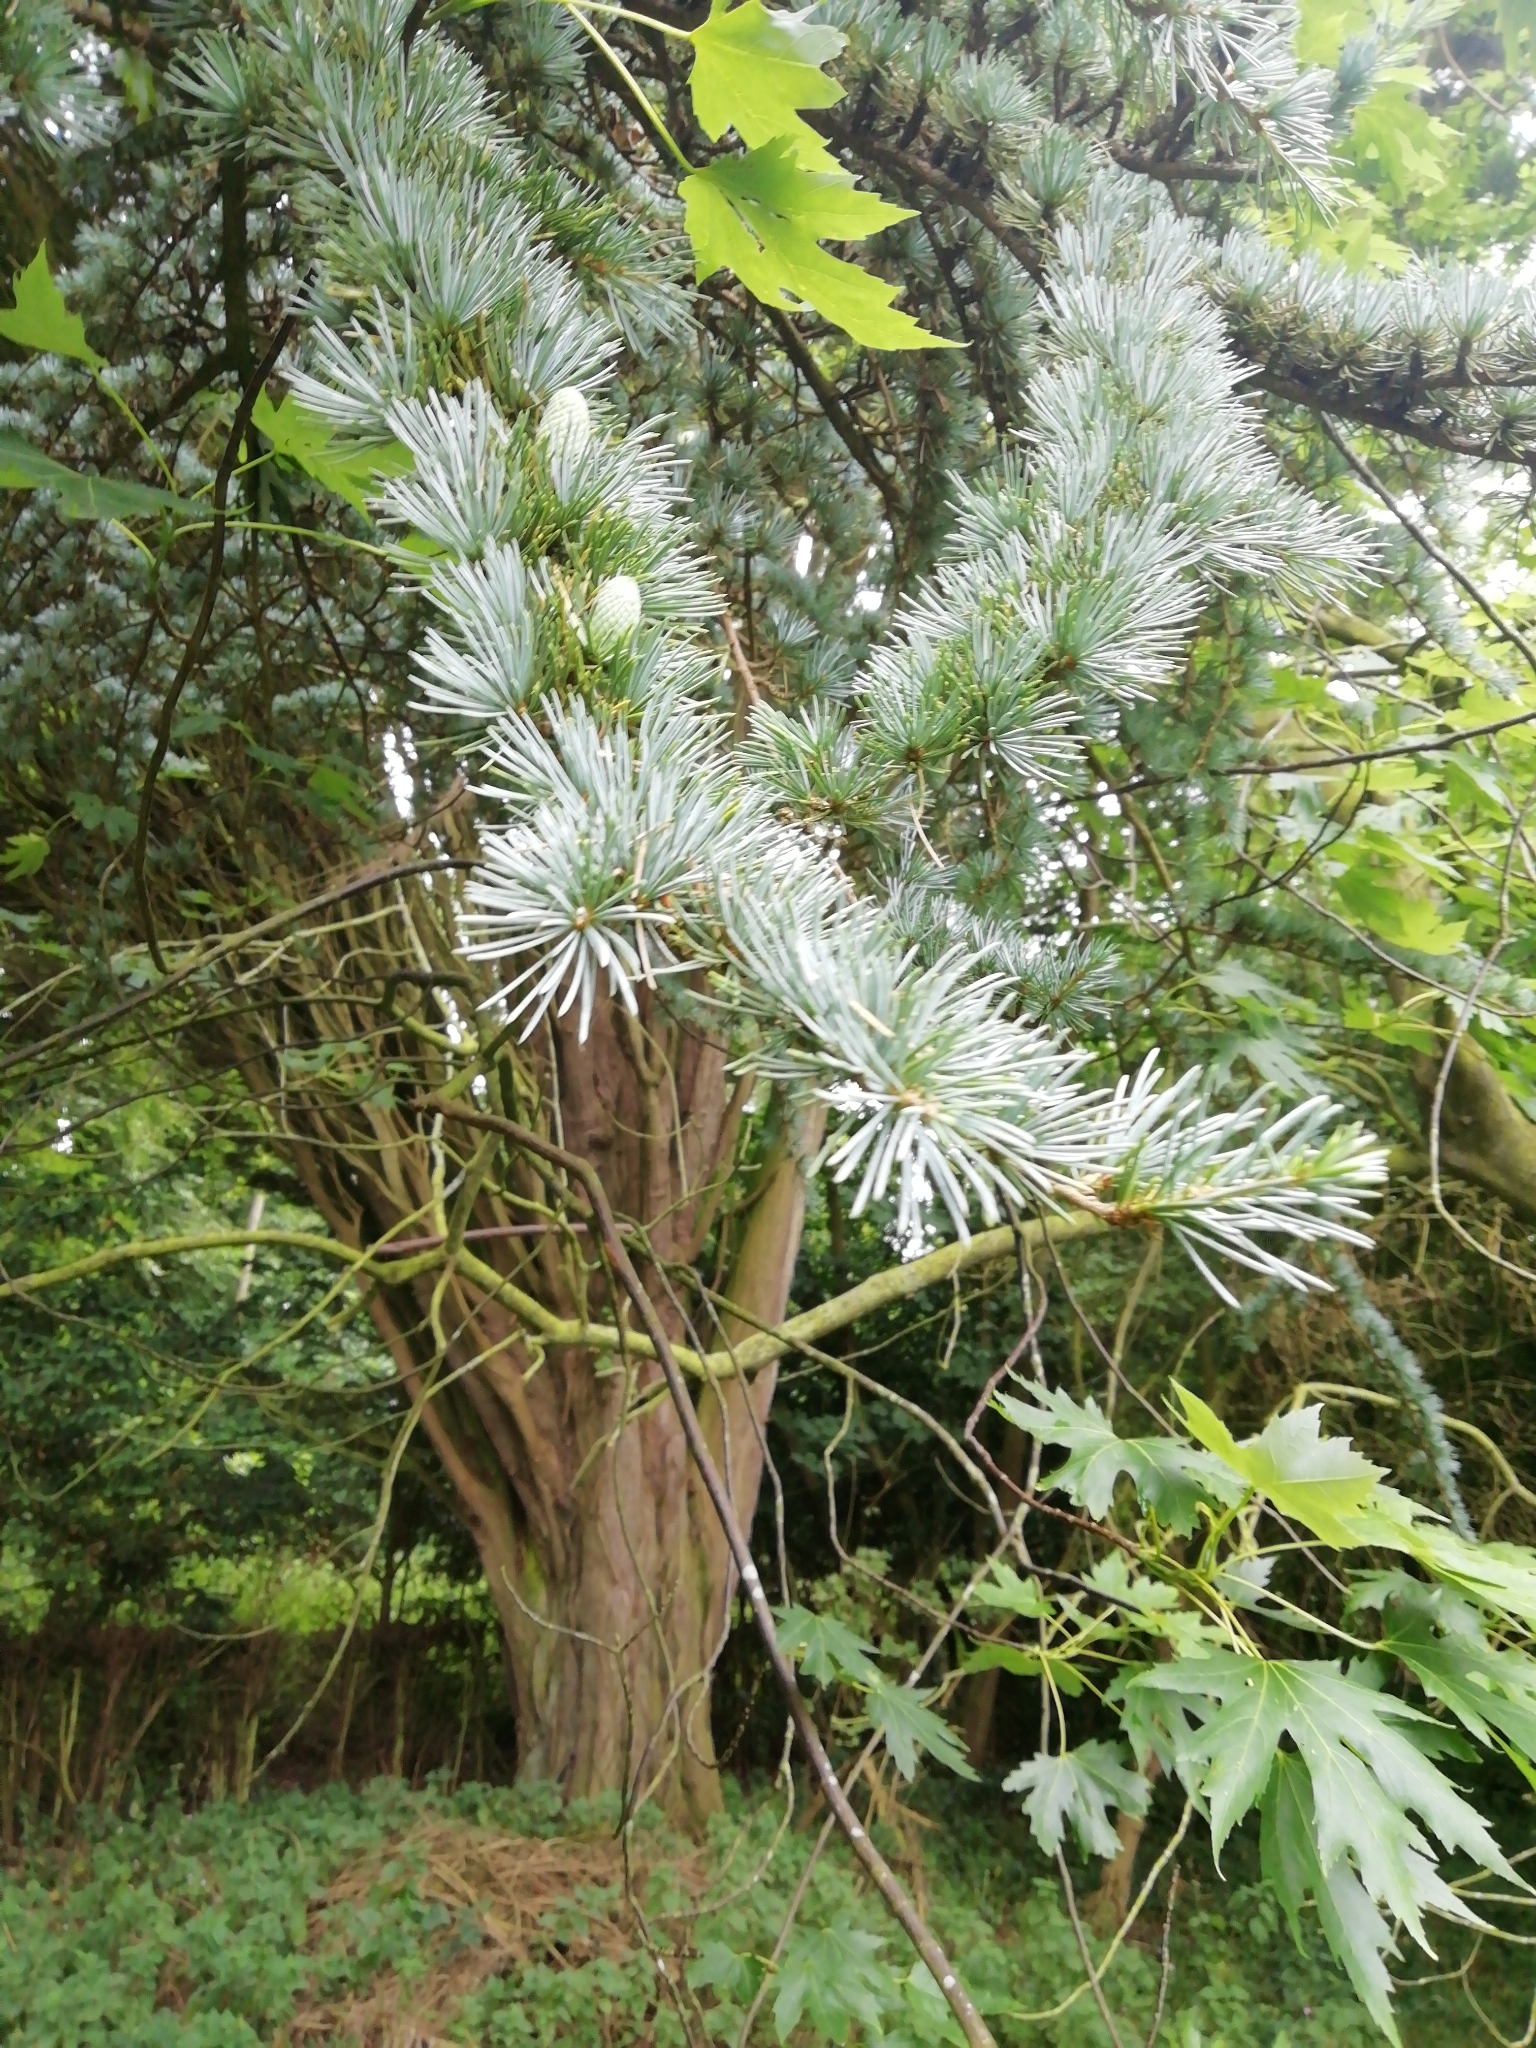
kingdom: Plantae
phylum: Tracheophyta
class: Pinopsida
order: Pinales
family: Pinaceae
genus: Cedrus
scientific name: Cedrus atlantica
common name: Atlas cedar
